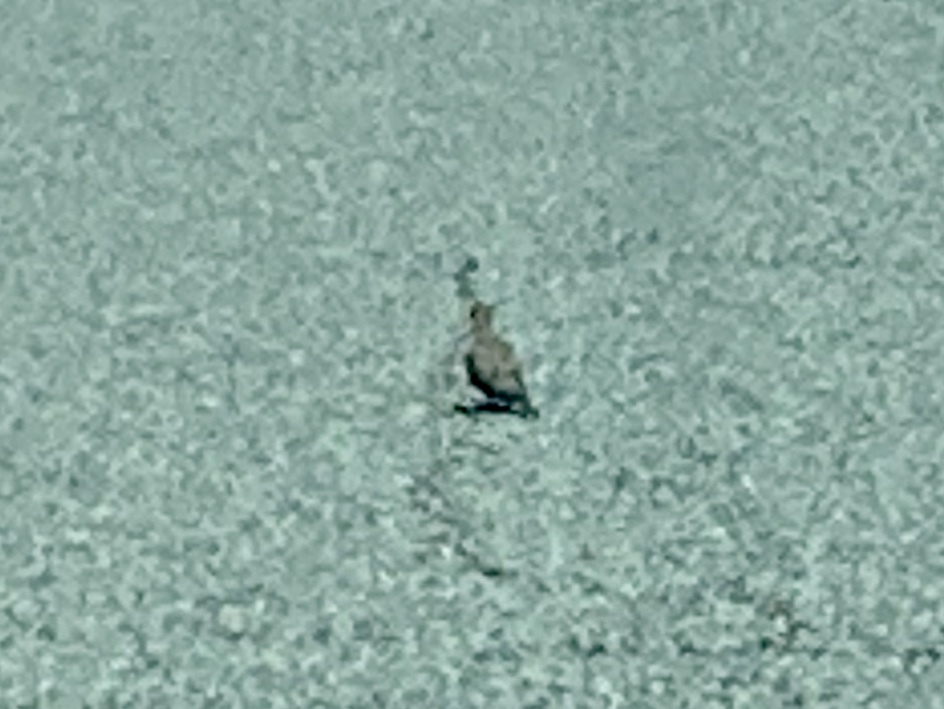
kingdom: Animalia
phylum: Chordata
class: Aves
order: Columbiformes
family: Columbidae
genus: Zenaida
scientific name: Zenaida macroura
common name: Mourning dove
